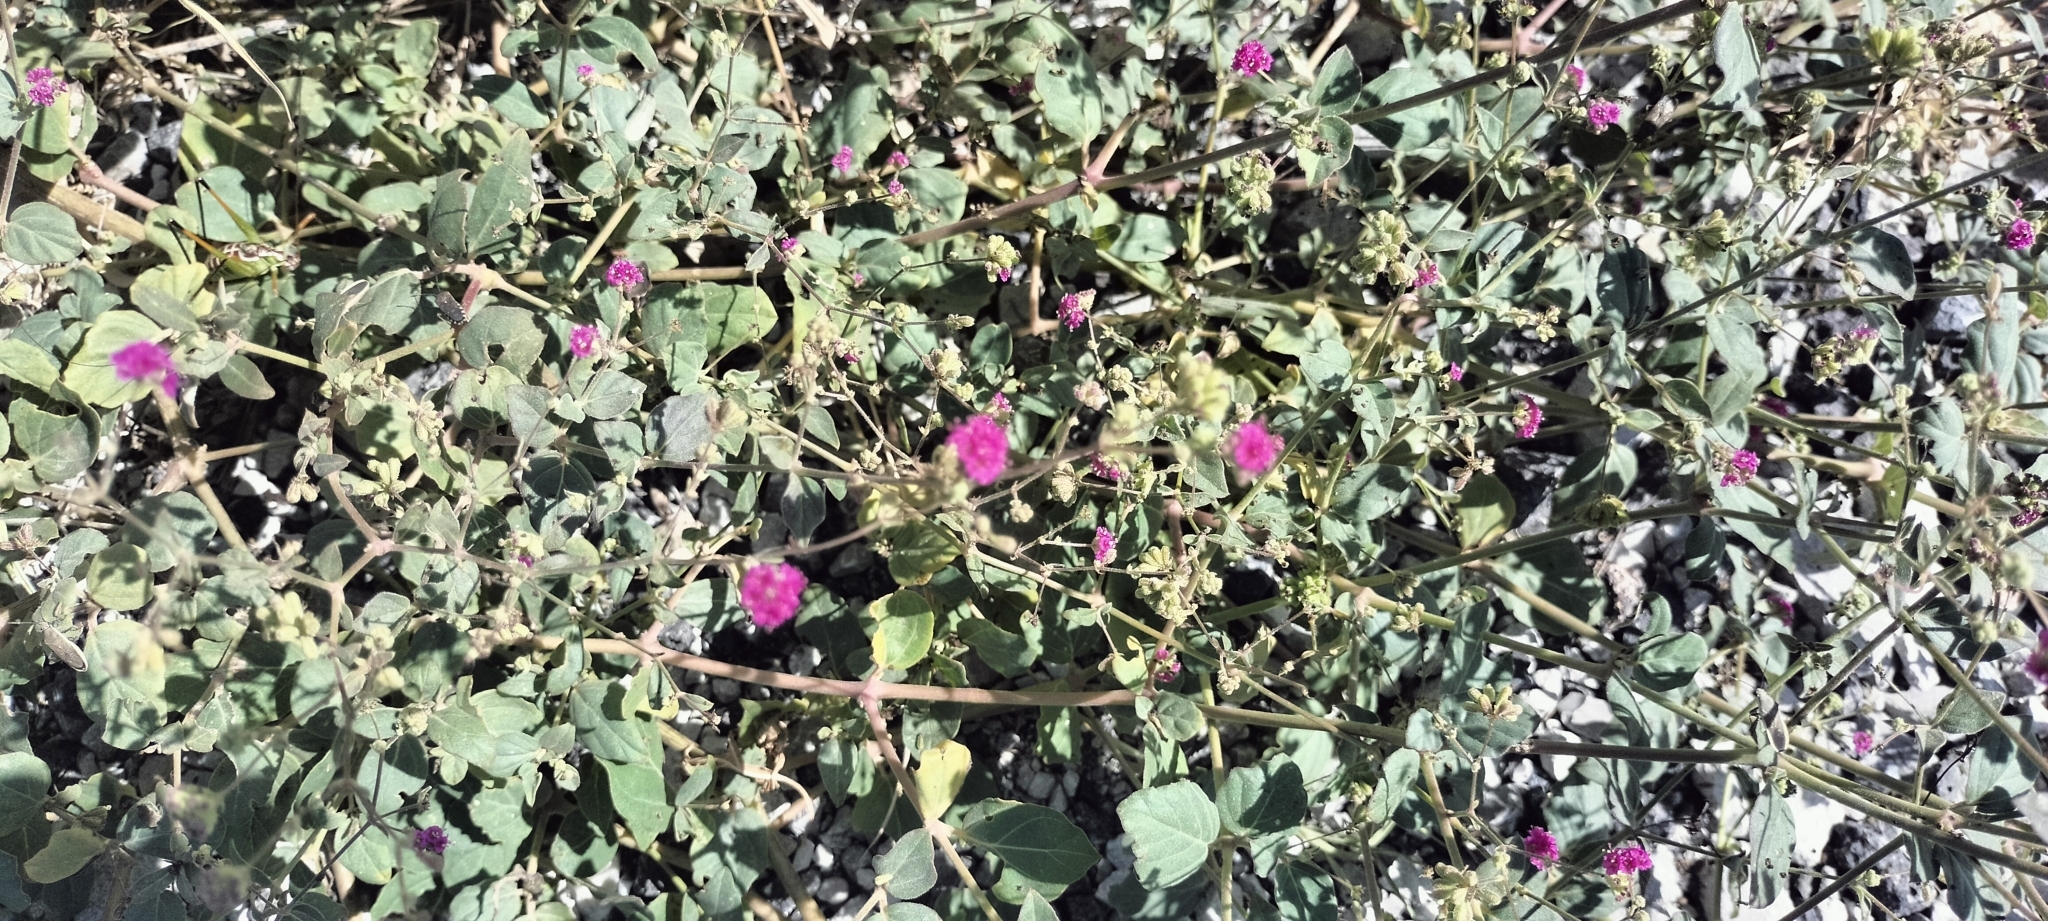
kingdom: Plantae
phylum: Tracheophyta
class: Magnoliopsida
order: Caryophyllales
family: Nyctaginaceae
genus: Boerhavia
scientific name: Boerhavia coccinea
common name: Scarlet spiderling
